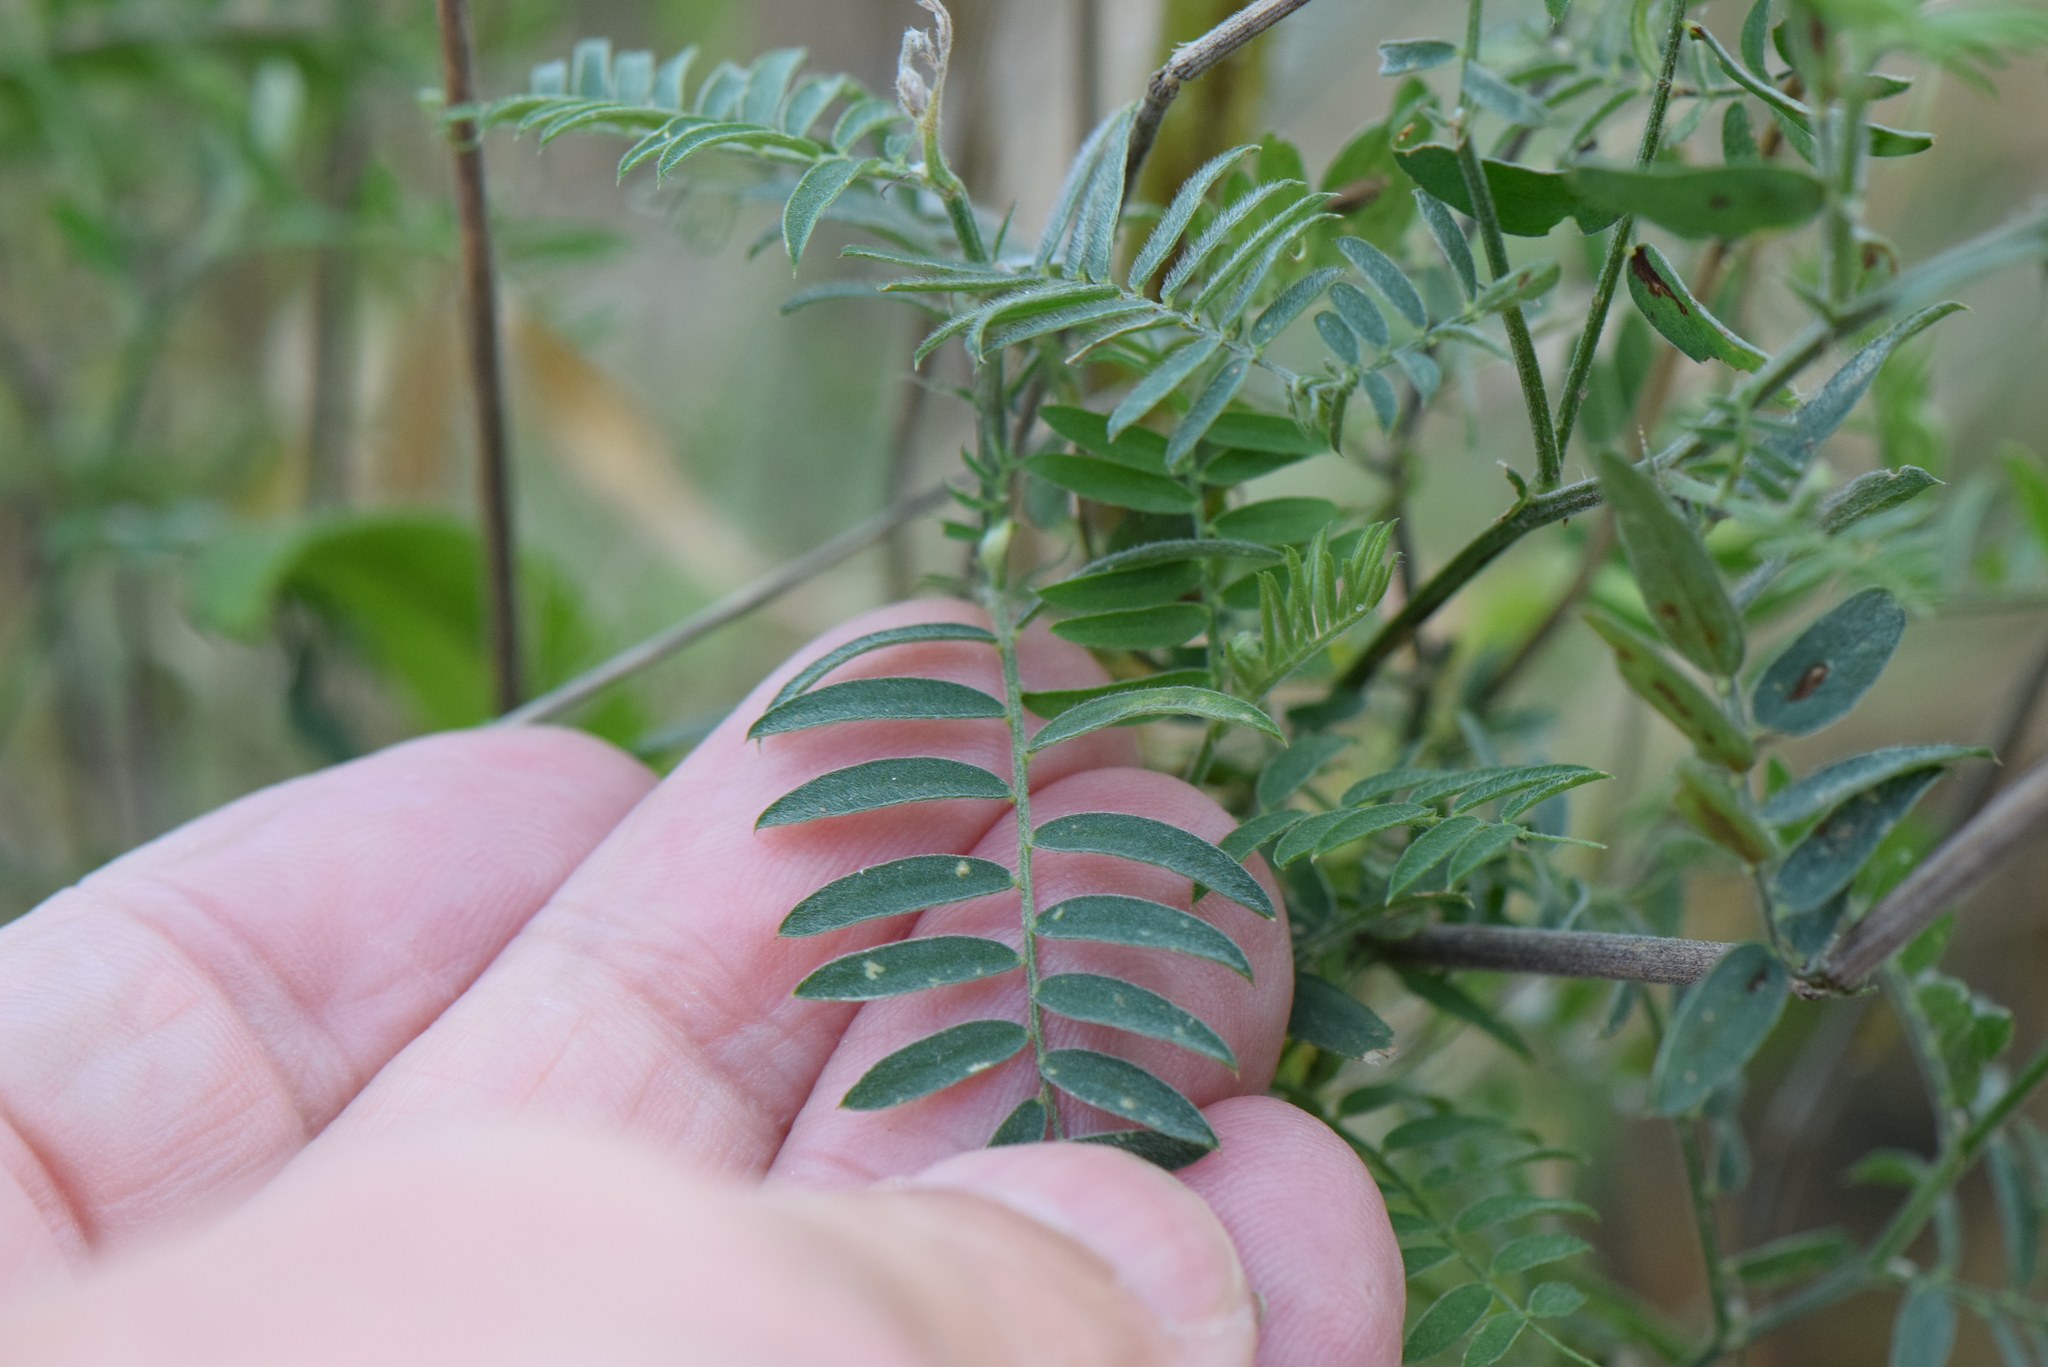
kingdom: Plantae
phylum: Tracheophyta
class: Magnoliopsida
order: Fabales
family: Fabaceae
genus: Vicia
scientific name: Vicia cracca
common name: Bird vetch
